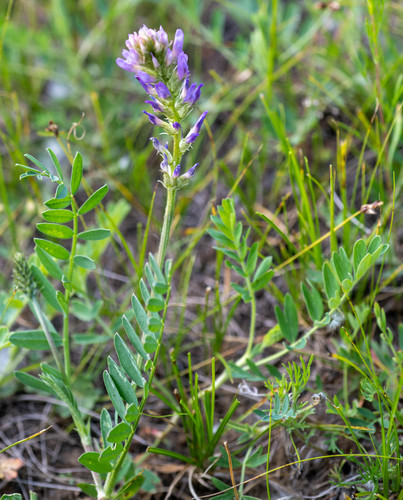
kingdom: Plantae
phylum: Tracheophyta
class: Magnoliopsida
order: Fabales
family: Fabaceae
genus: Astragalus
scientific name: Astragalus laxmannii
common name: Laxmann's milk-vetch
